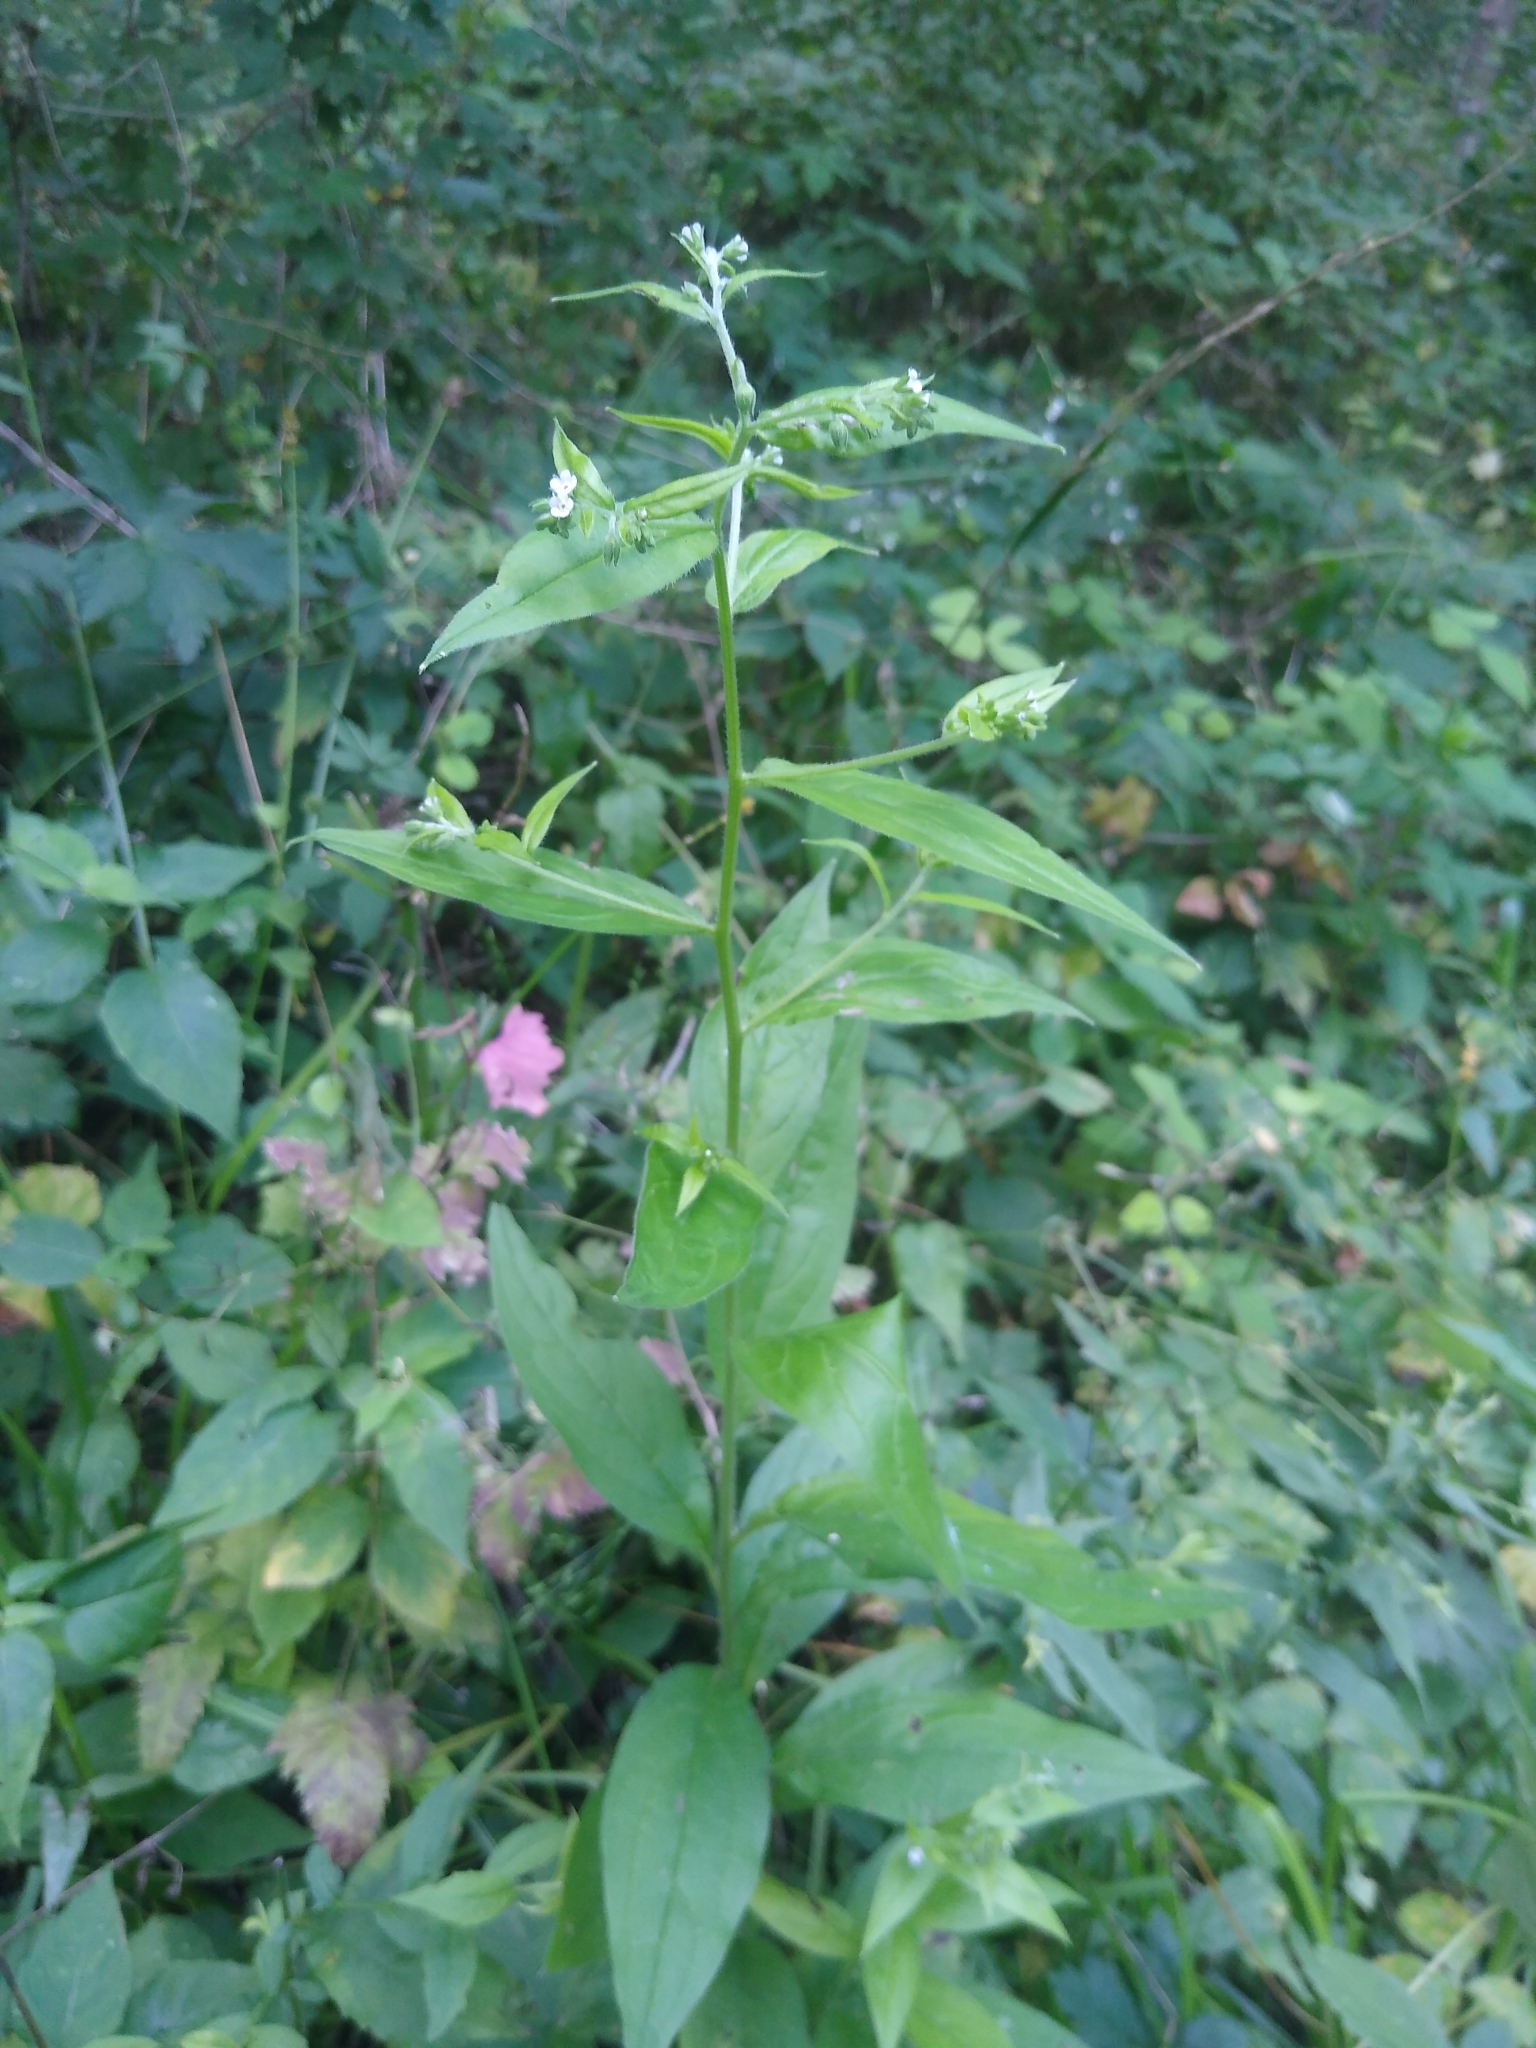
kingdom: Plantae
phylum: Tracheophyta
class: Magnoliopsida
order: Boraginales
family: Boraginaceae
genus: Hackelia
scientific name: Hackelia virginiana
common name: Beggar's-lice
